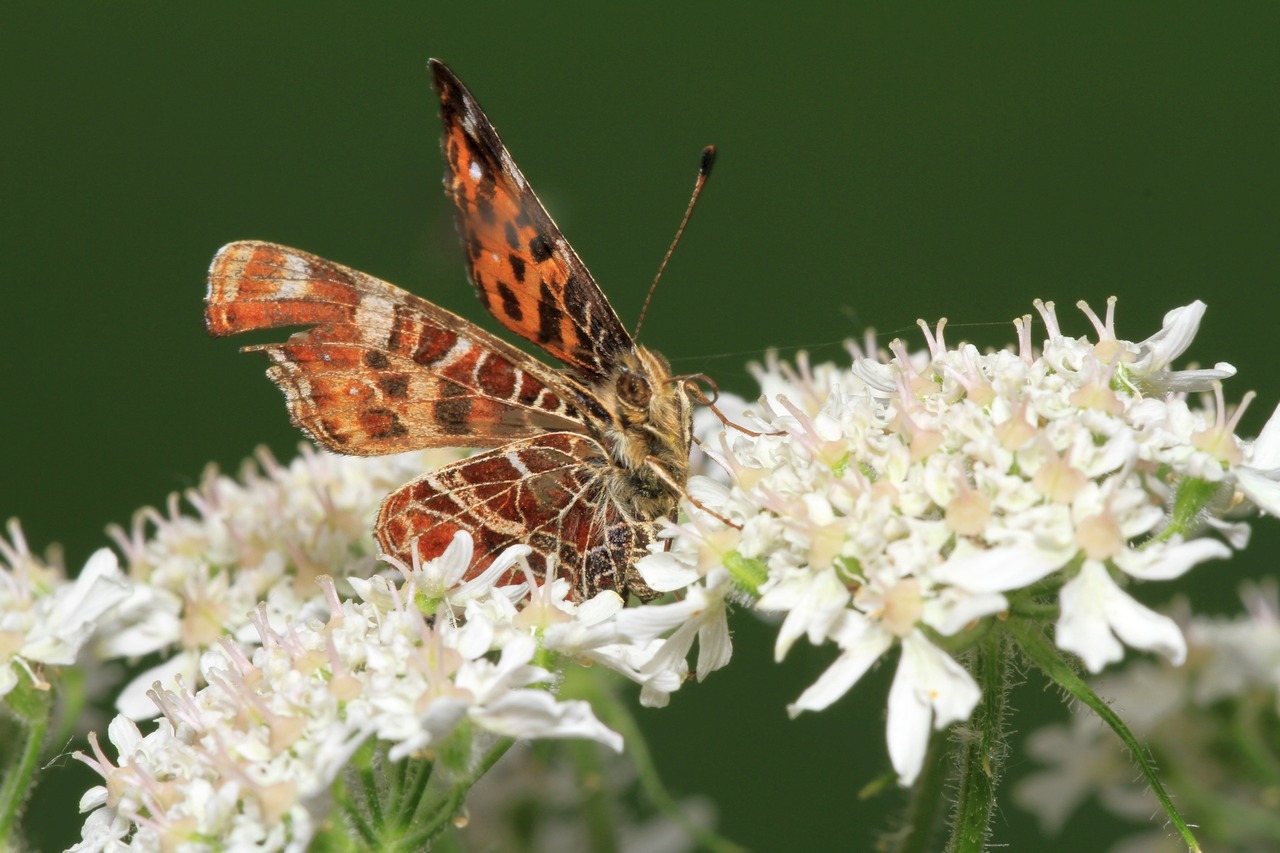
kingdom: Animalia
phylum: Arthropoda
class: Insecta
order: Lepidoptera
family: Nymphalidae
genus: Araschnia
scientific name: Araschnia levana
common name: Map butterfly
